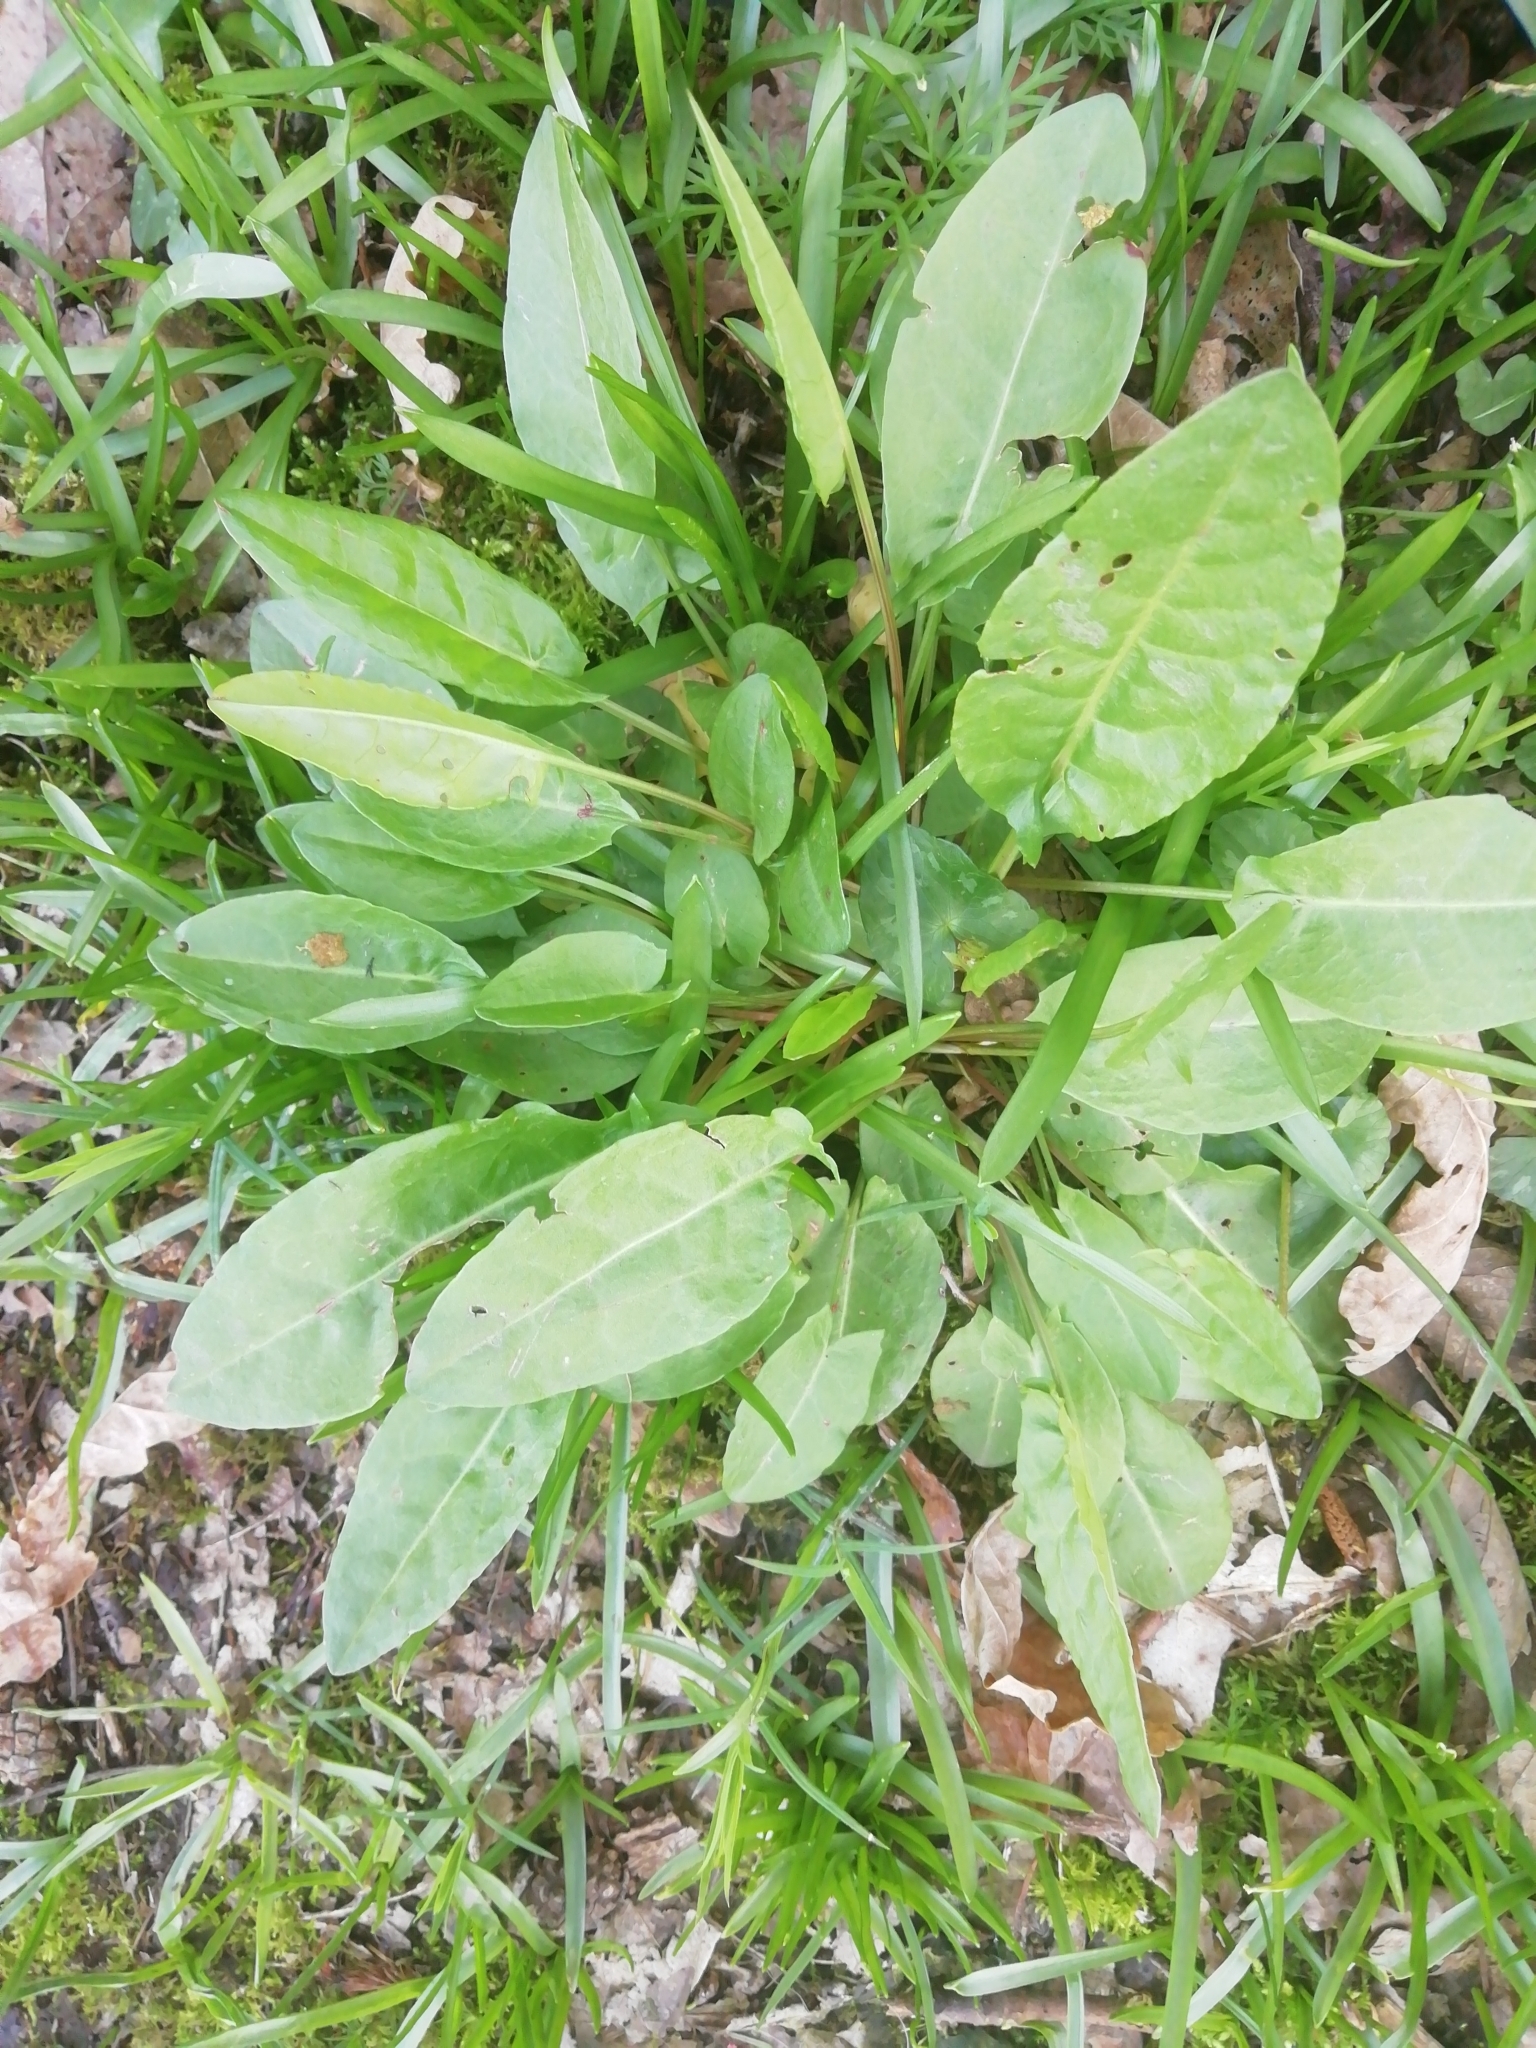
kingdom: Plantae
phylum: Tracheophyta
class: Magnoliopsida
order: Caryophyllales
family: Polygonaceae
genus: Rumex
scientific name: Rumex acetosa
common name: Garden sorrel
